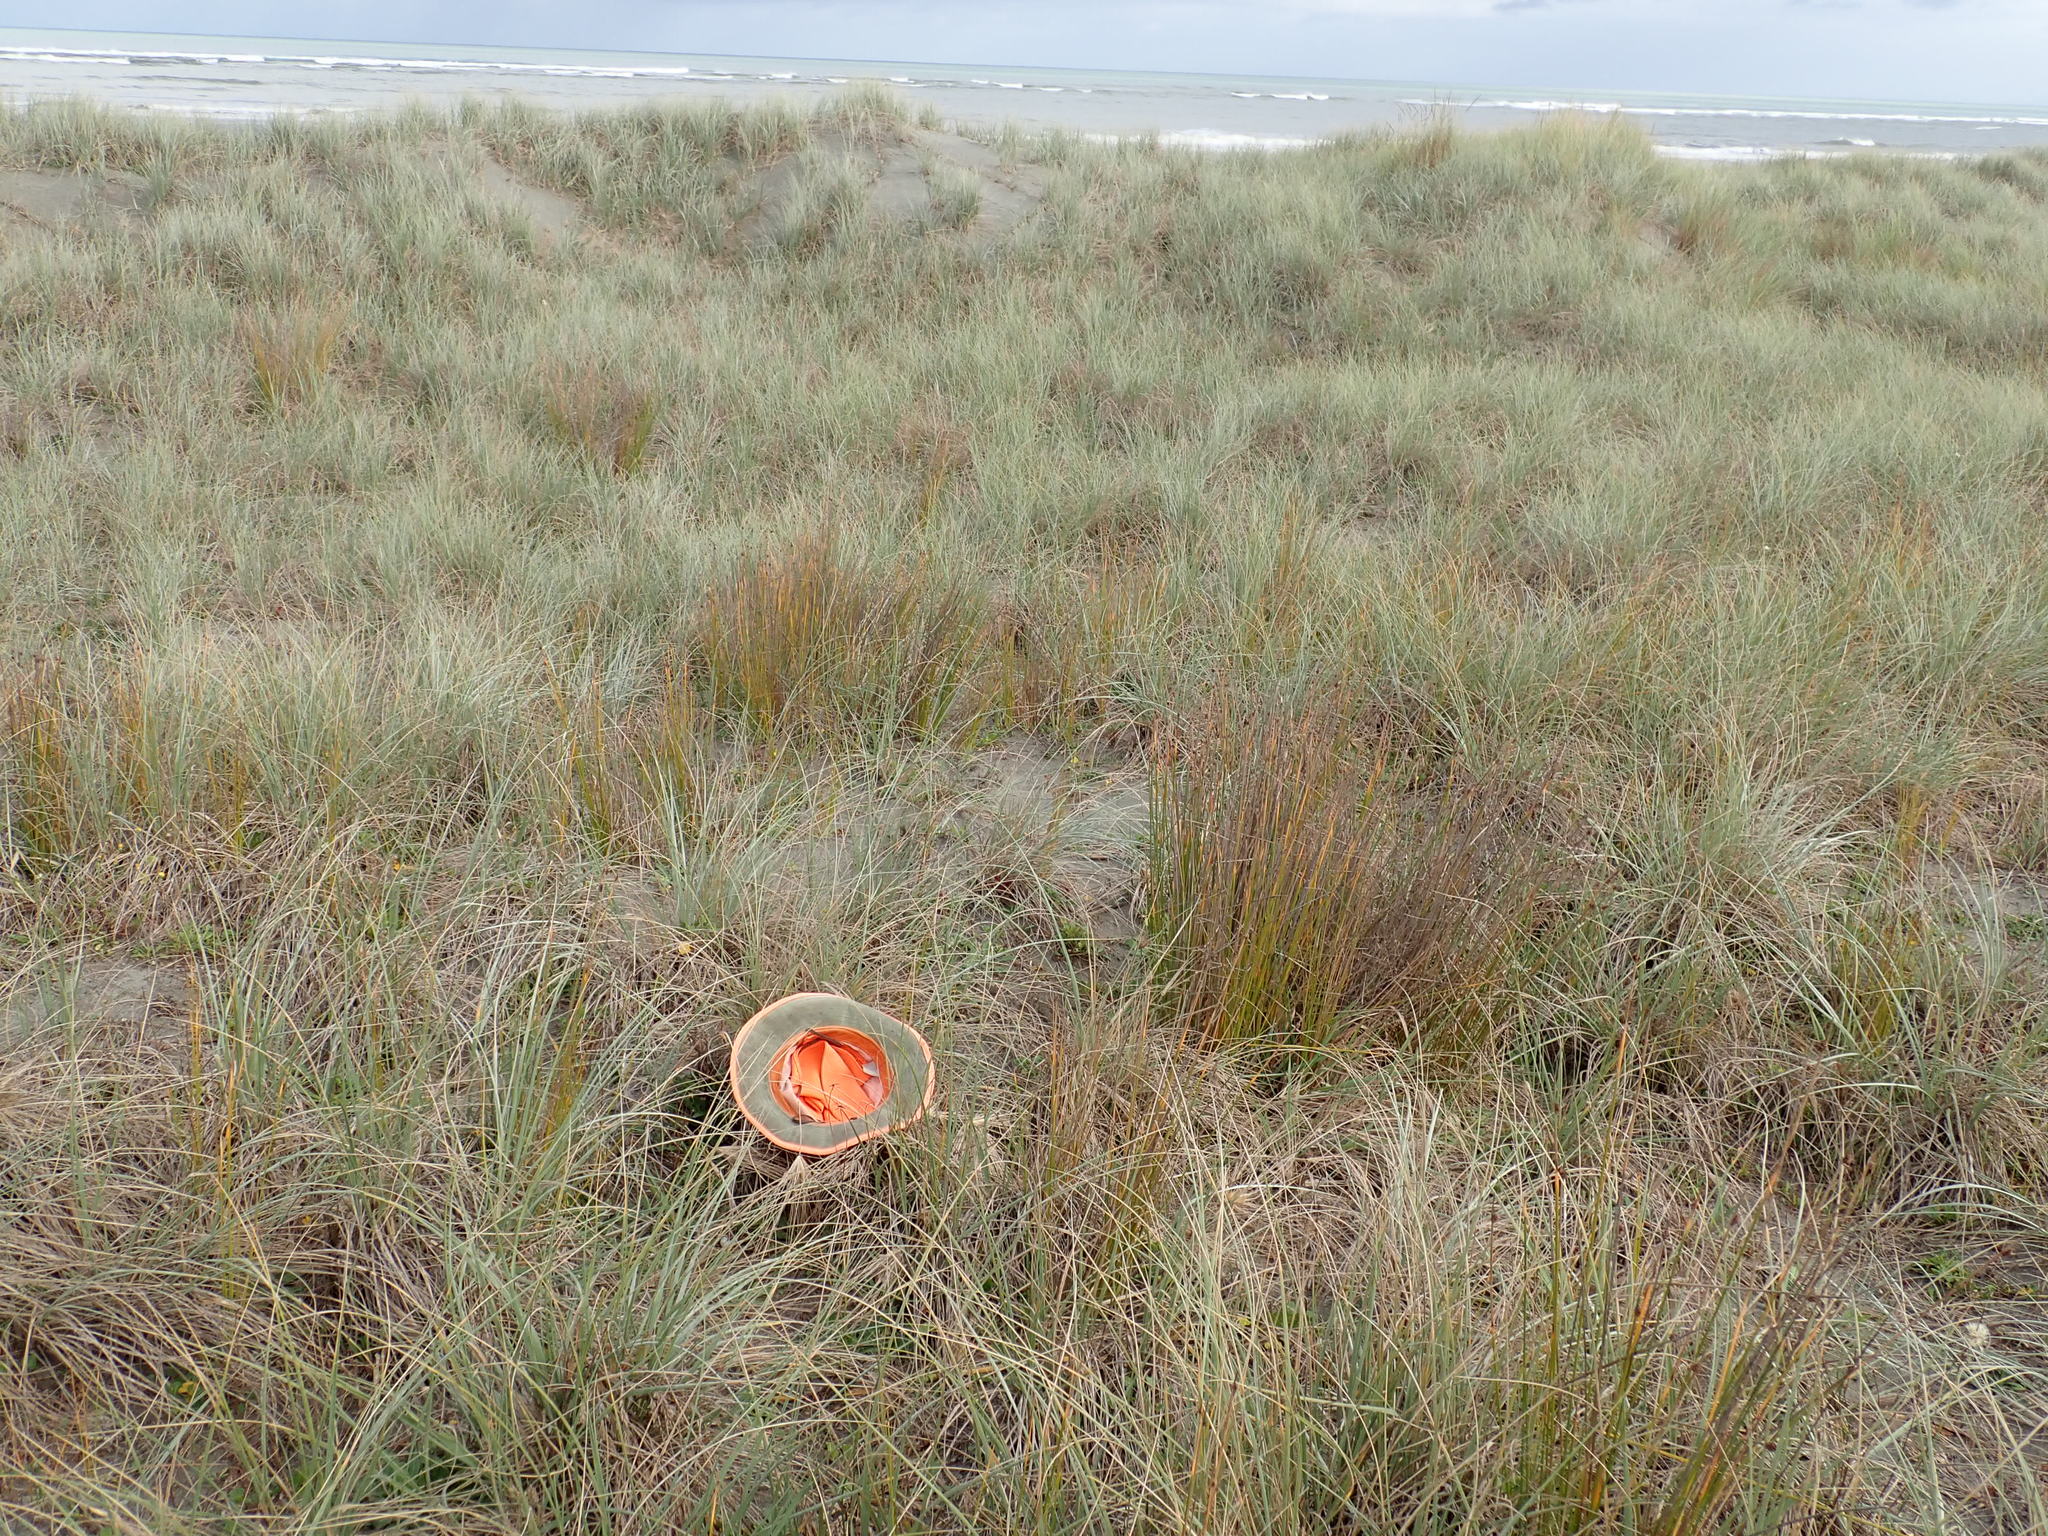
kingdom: Animalia
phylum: Arthropoda
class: Arachnida
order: Araneae
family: Theridiidae
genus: Latrodectus
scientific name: Latrodectus katipo
